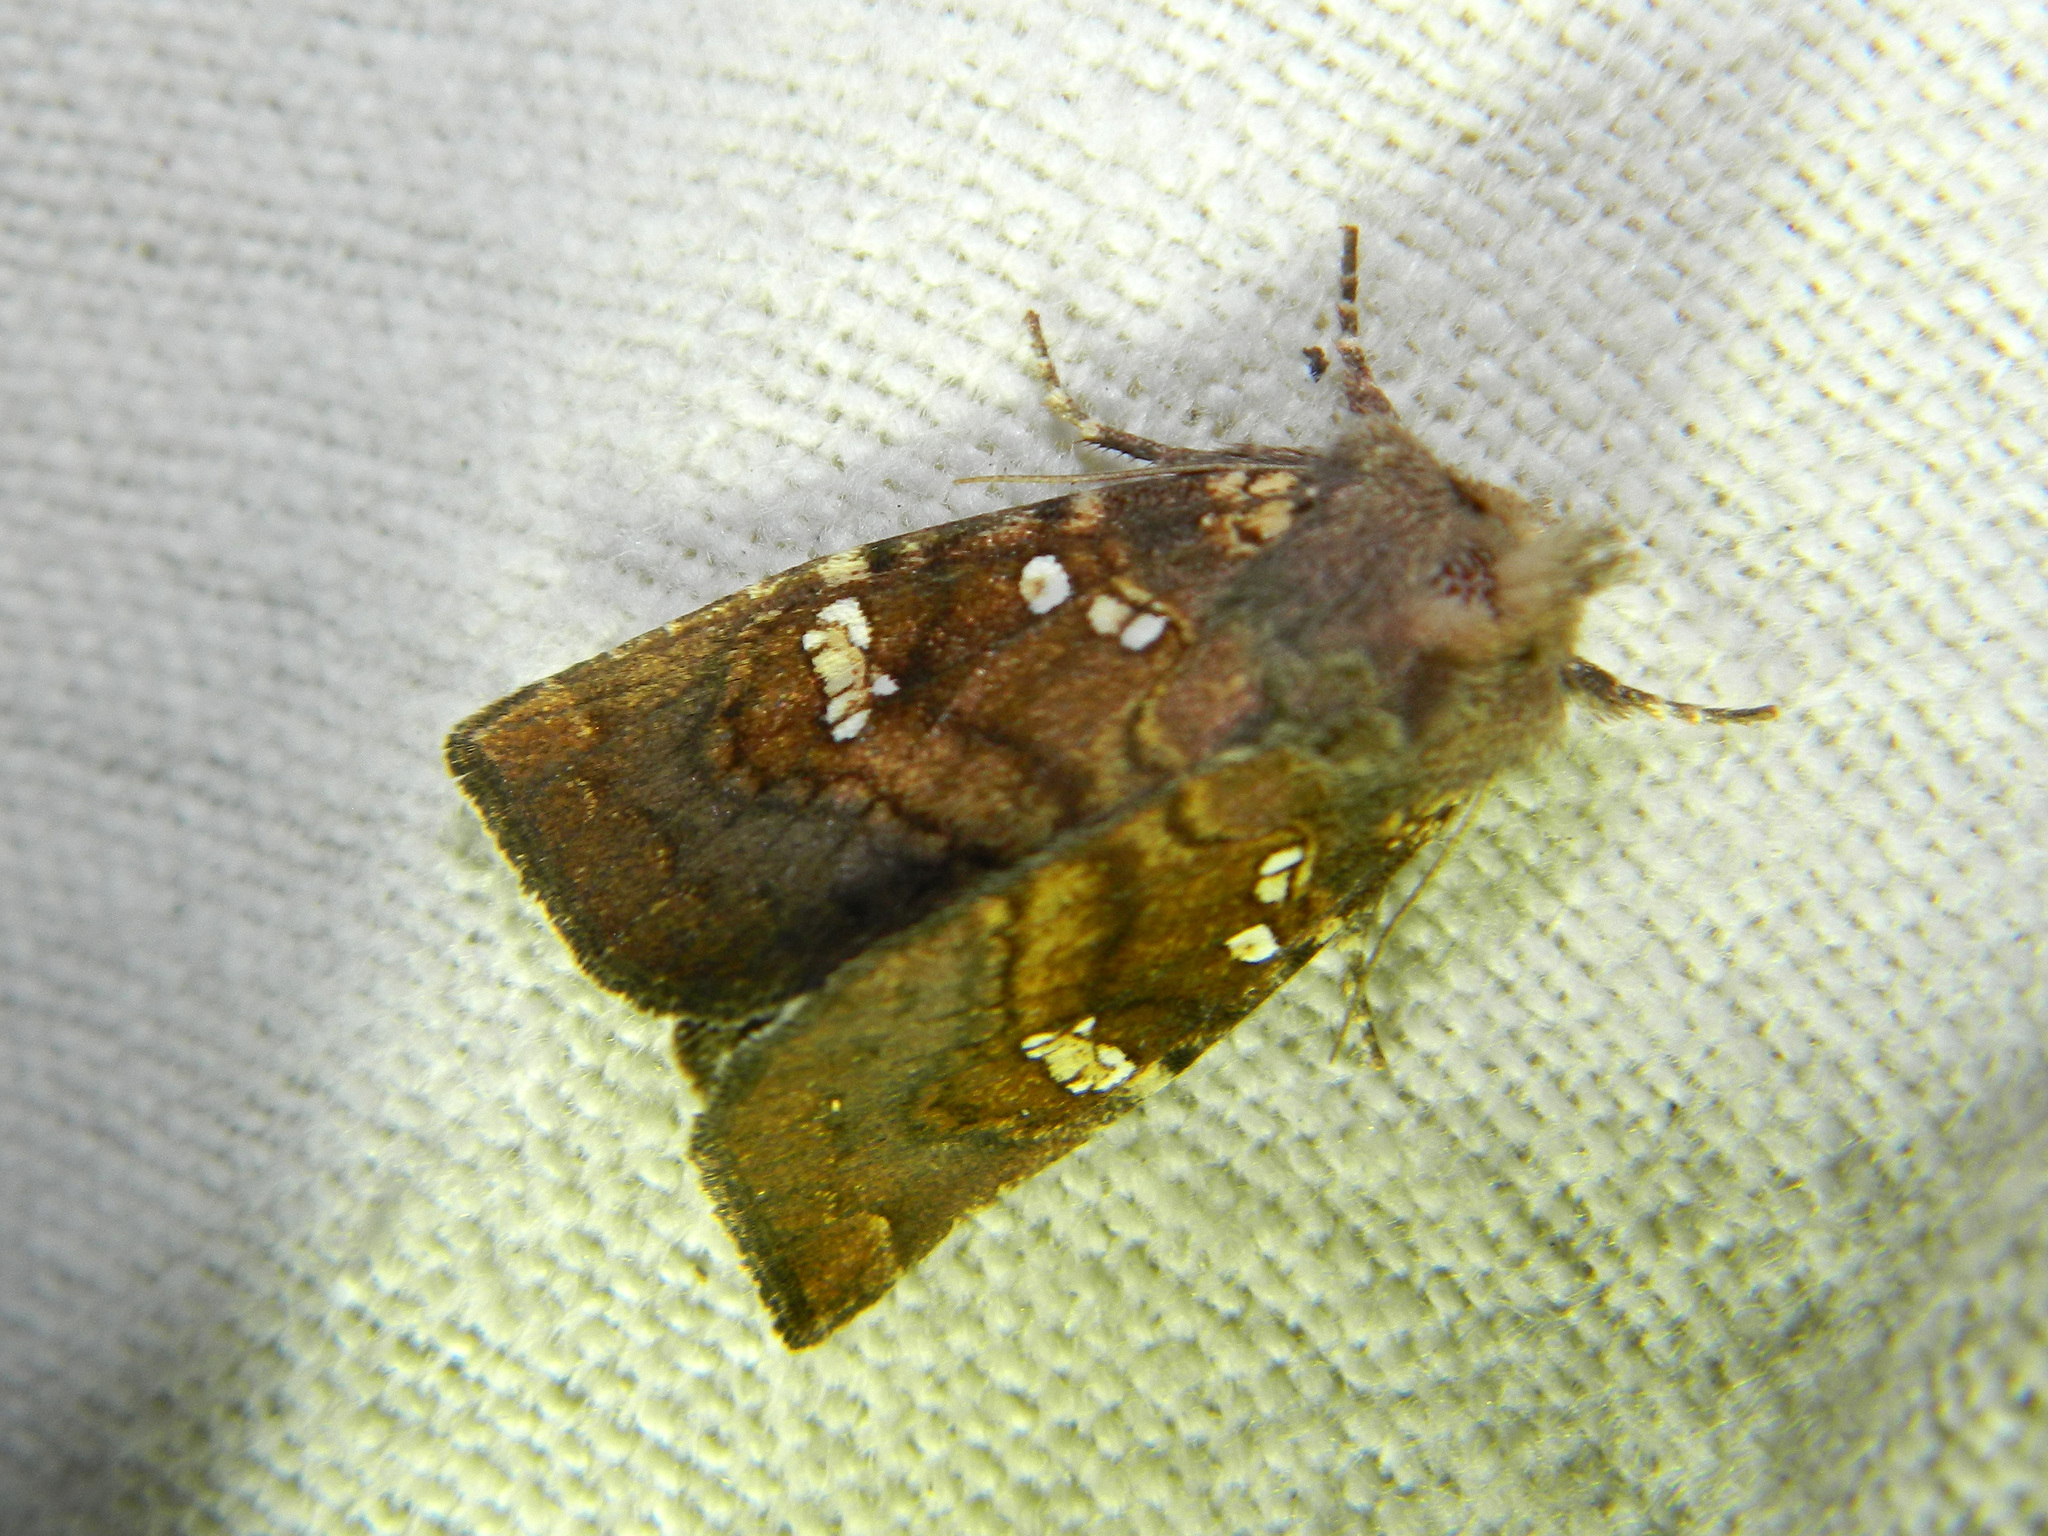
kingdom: Animalia
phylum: Arthropoda
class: Insecta
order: Lepidoptera
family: Noctuidae
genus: Papaipema
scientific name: Papaipema unimoda
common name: Meadow rue borer moth
